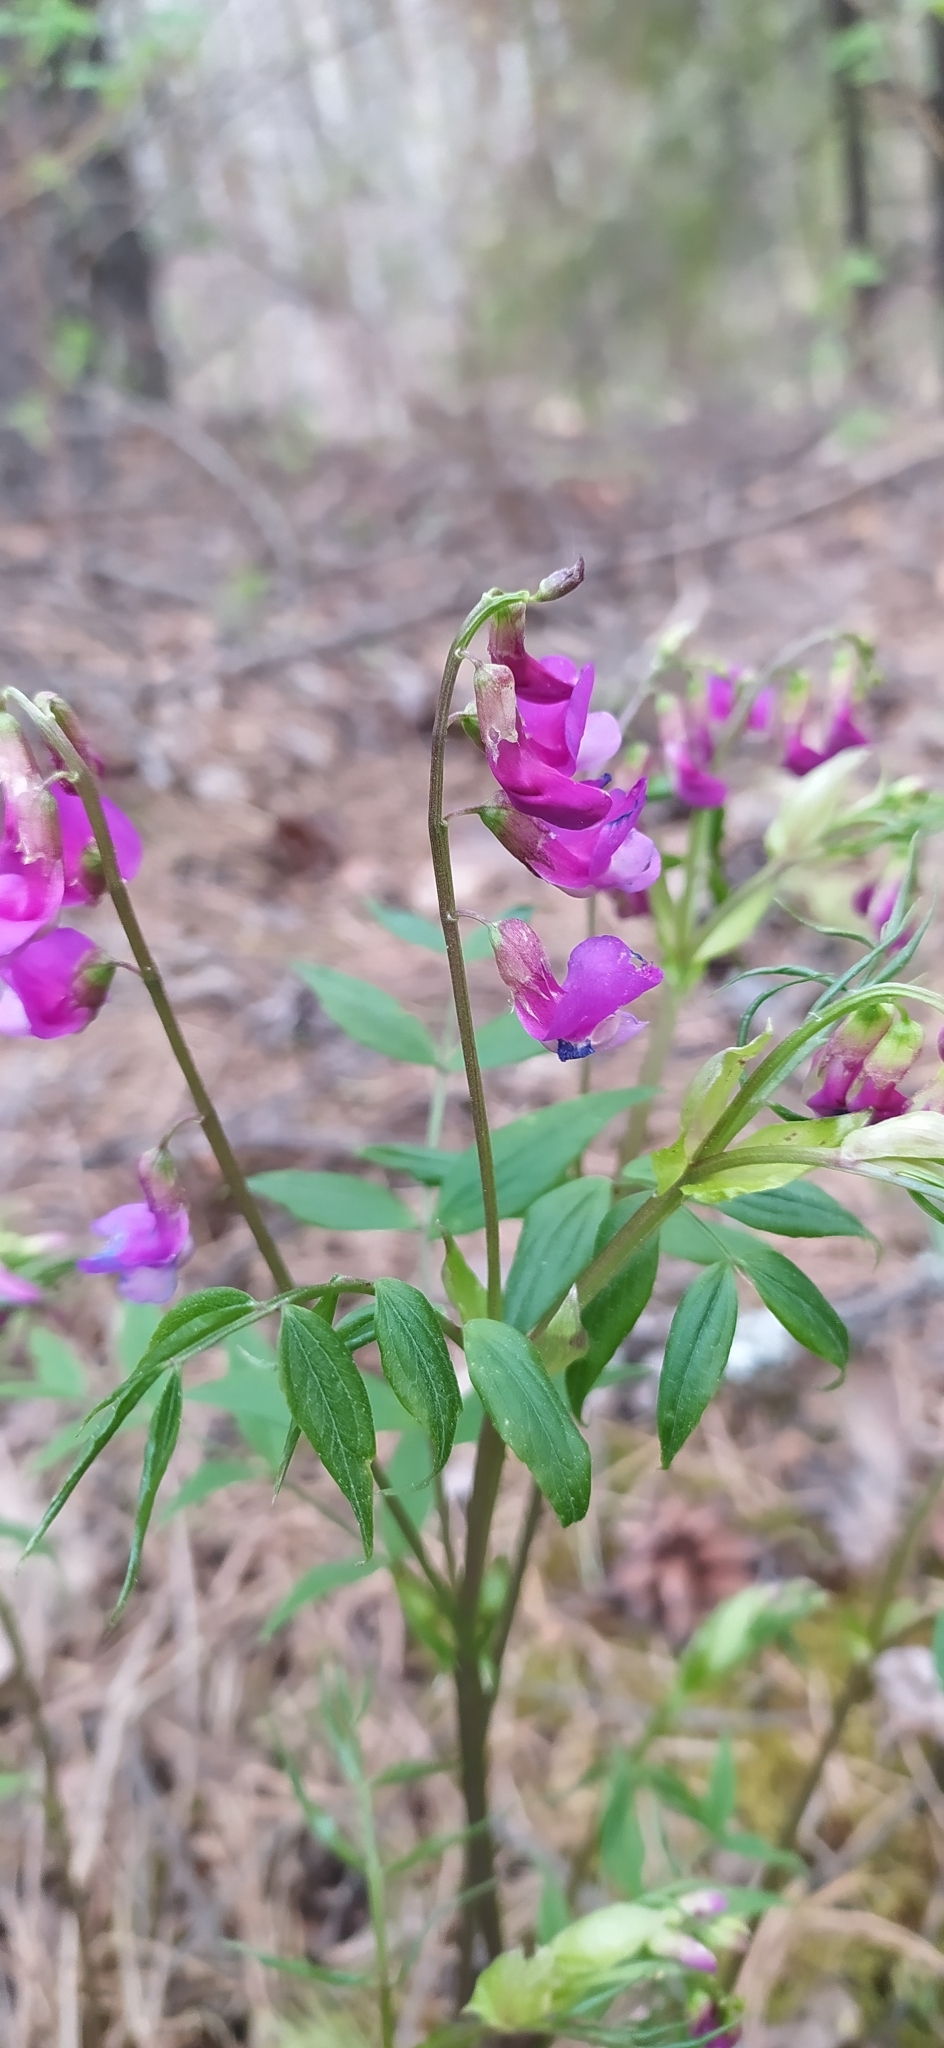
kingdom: Plantae
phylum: Tracheophyta
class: Magnoliopsida
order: Fabales
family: Fabaceae
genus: Lathyrus
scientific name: Lathyrus vernus
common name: Spring pea
